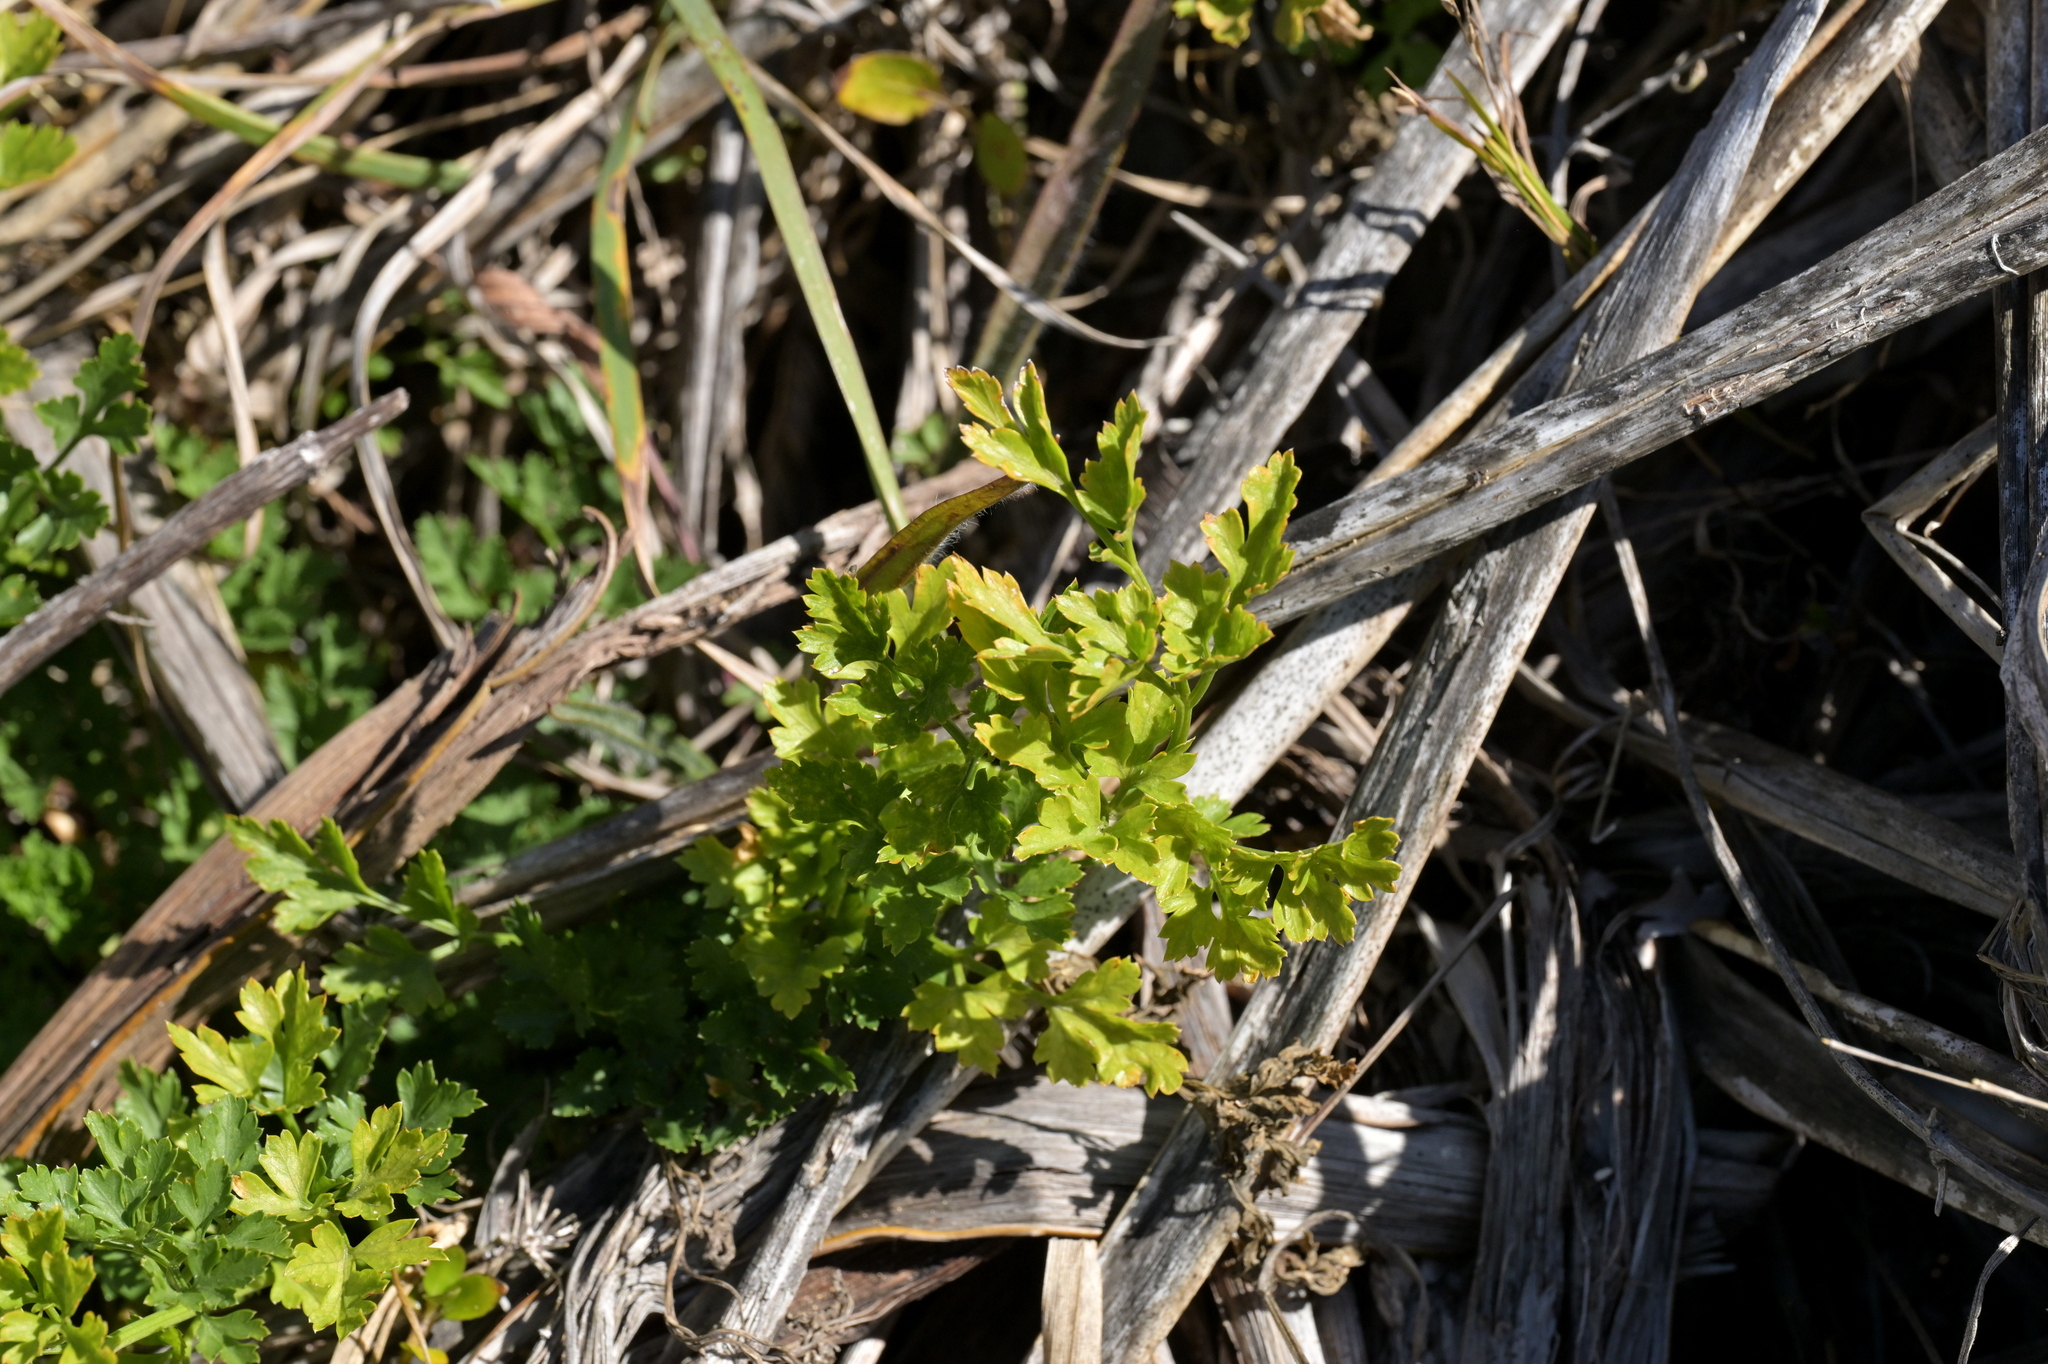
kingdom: Plantae
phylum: Tracheophyta
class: Magnoliopsida
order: Apiales
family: Apiaceae
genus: Petroselinum
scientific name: Petroselinum crispum
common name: Parsley
